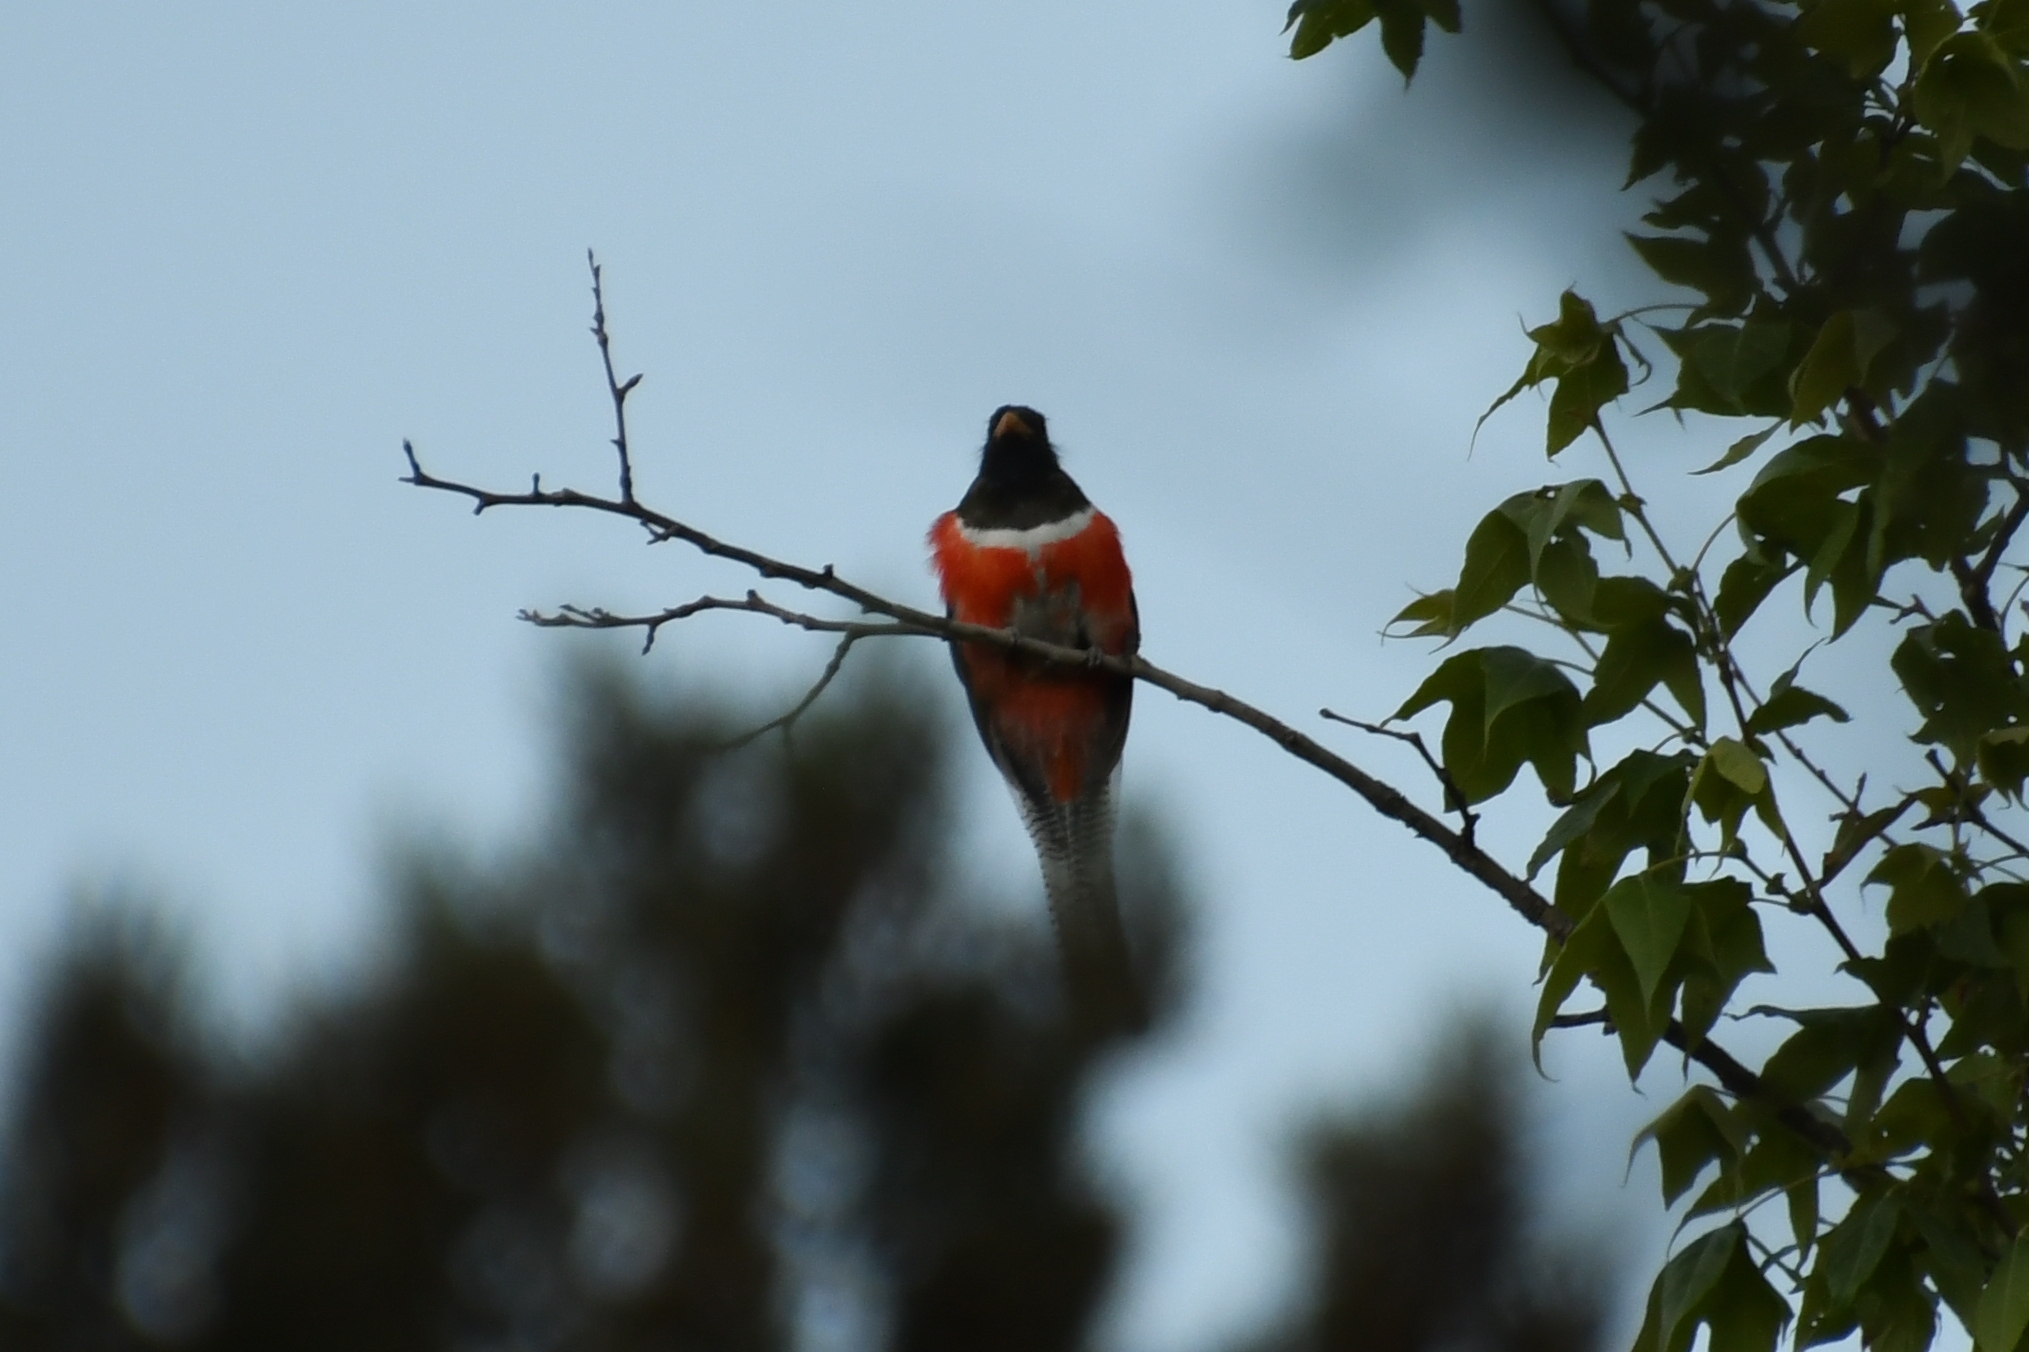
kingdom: Animalia
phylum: Chordata
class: Aves
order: Trogoniformes
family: Trogonidae
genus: Trogon
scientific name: Trogon elegans
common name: Elegant trogon
